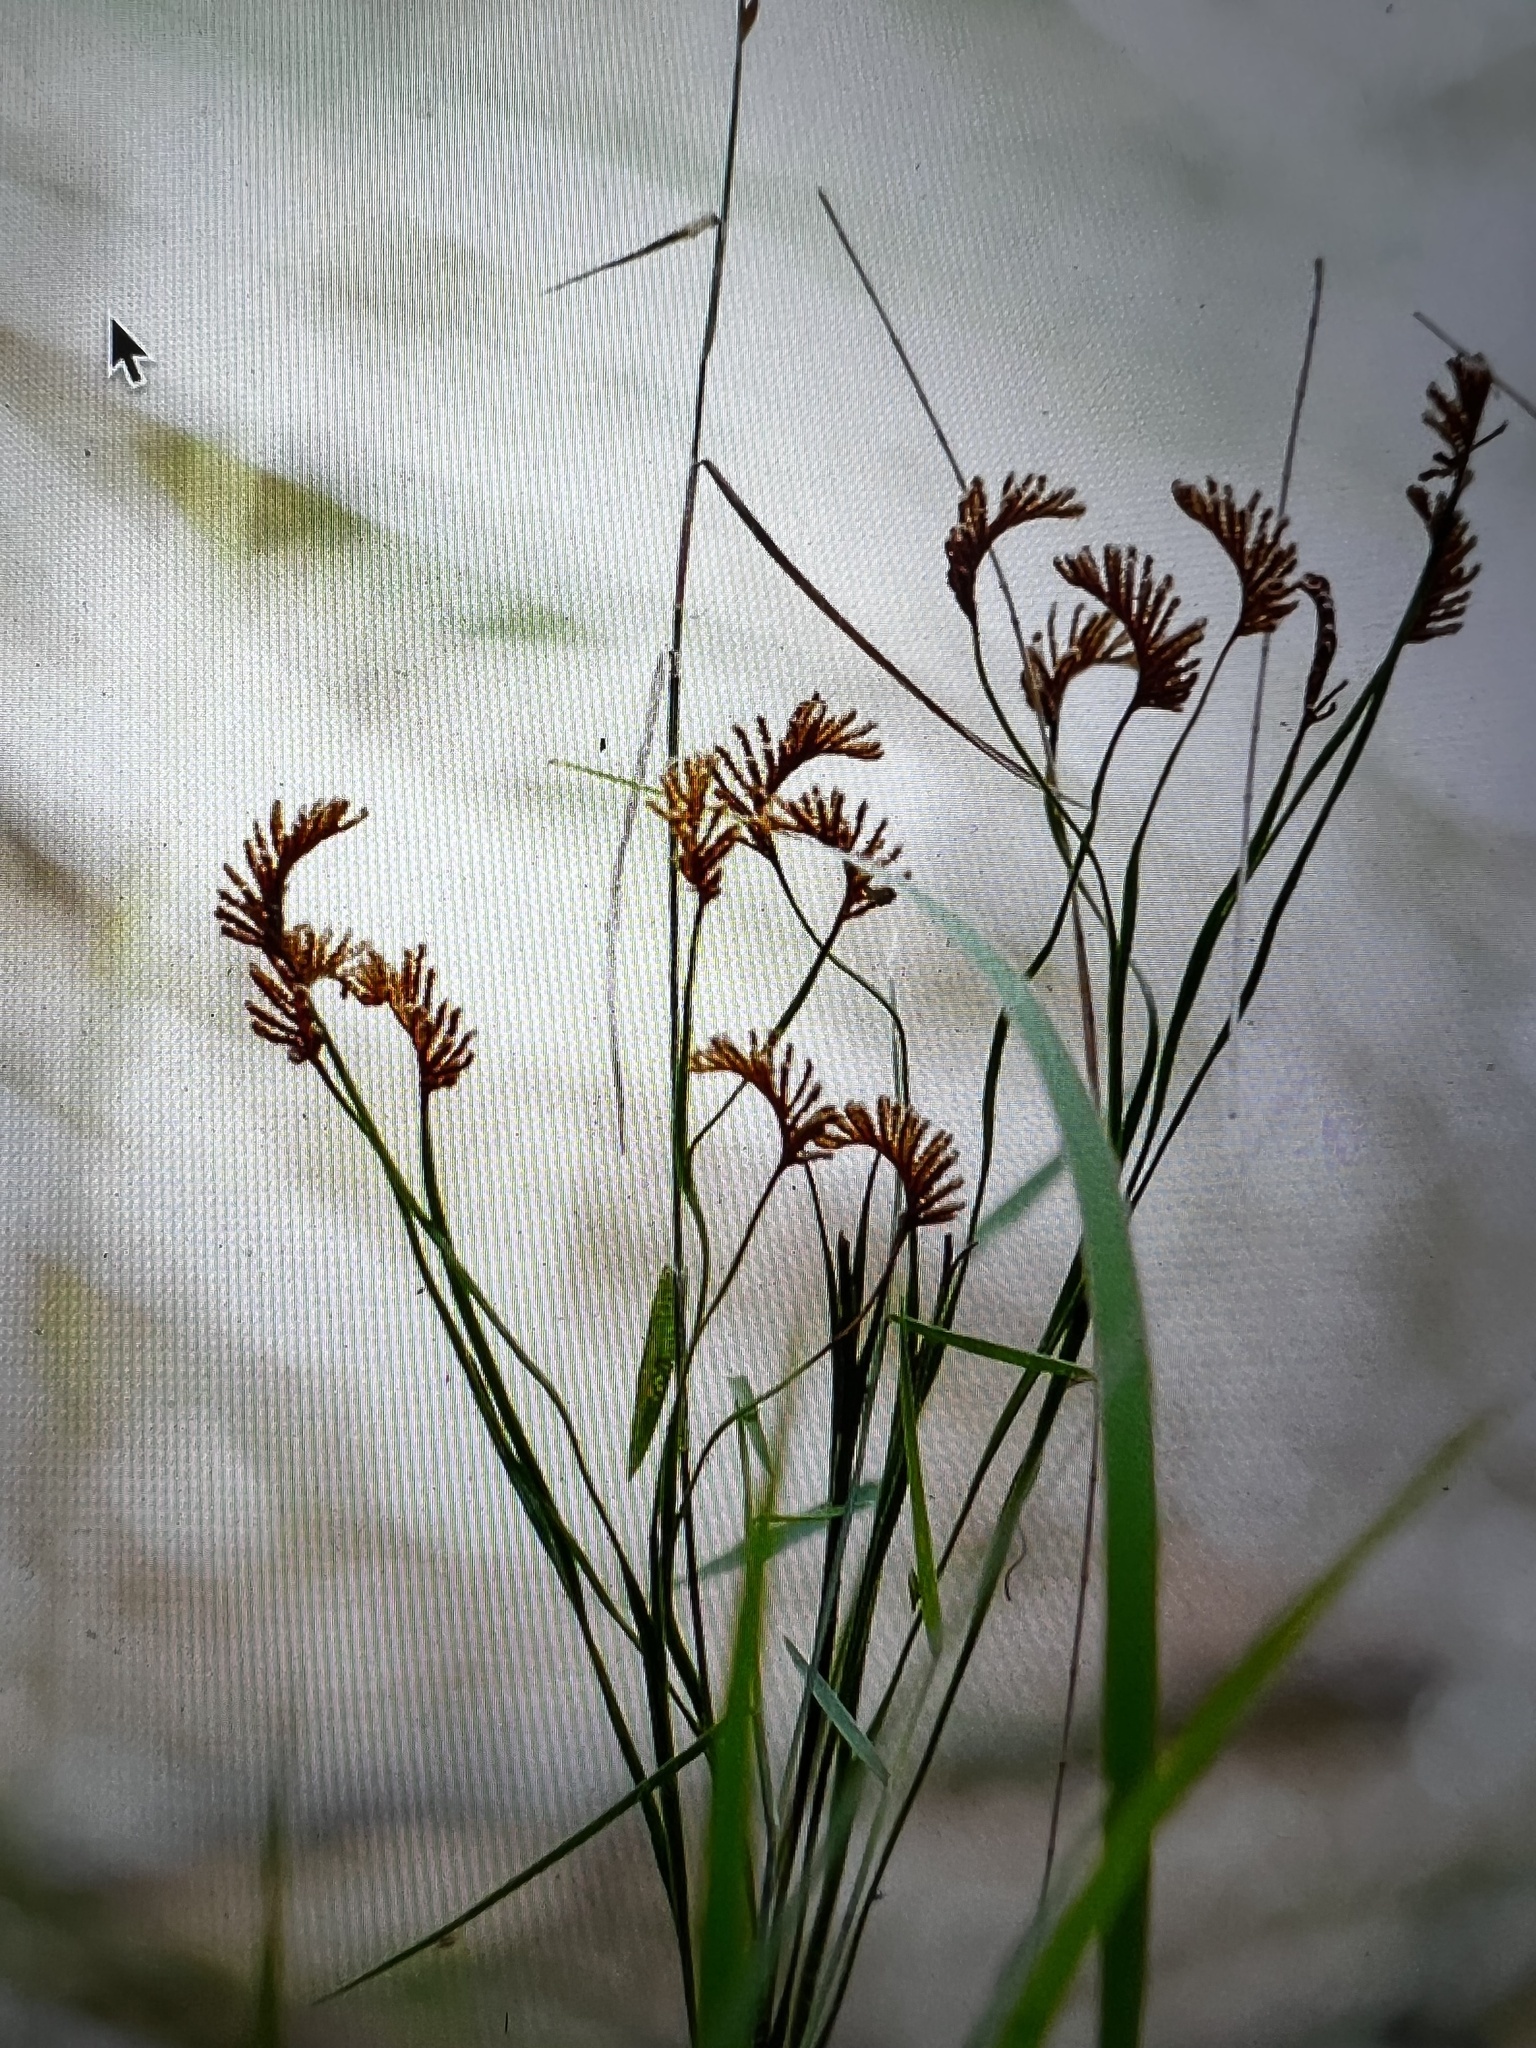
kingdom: Plantae
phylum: Tracheophyta
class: Polypodiopsida
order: Schizaeales
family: Schizaeaceae
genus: Schizaea
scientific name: Schizaea bifida
